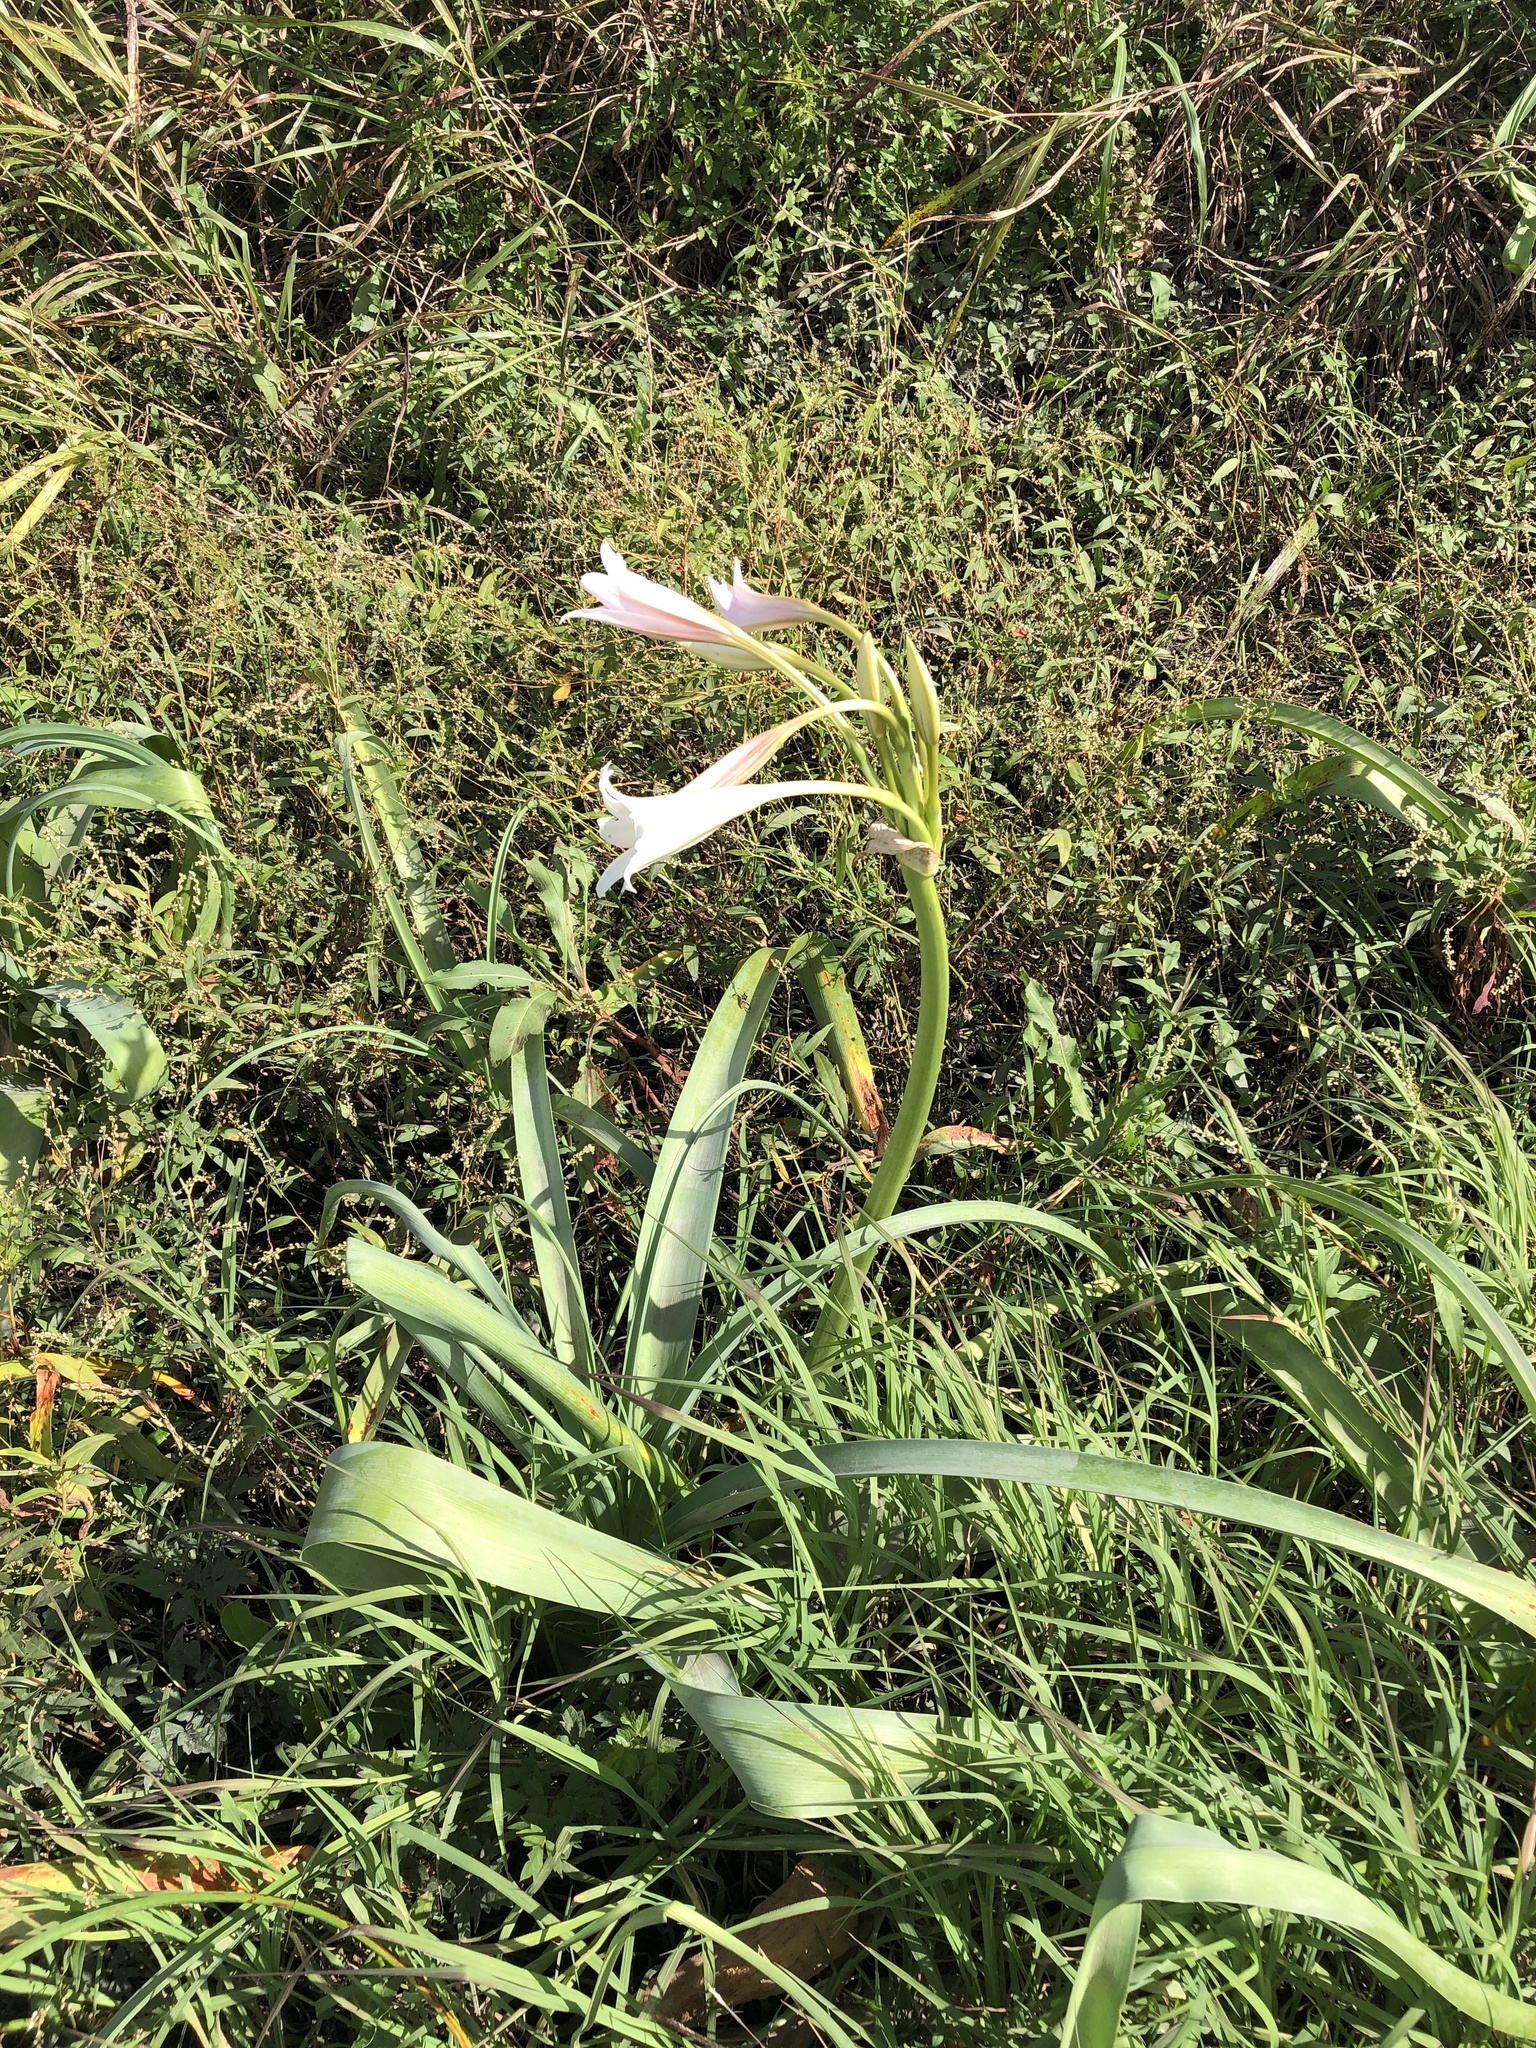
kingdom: Plantae
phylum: Tracheophyta
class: Liliopsida
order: Asparagales
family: Amaryllidaceae
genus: Crinum
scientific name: Crinum bulbispermum
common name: Hardy swamplily
